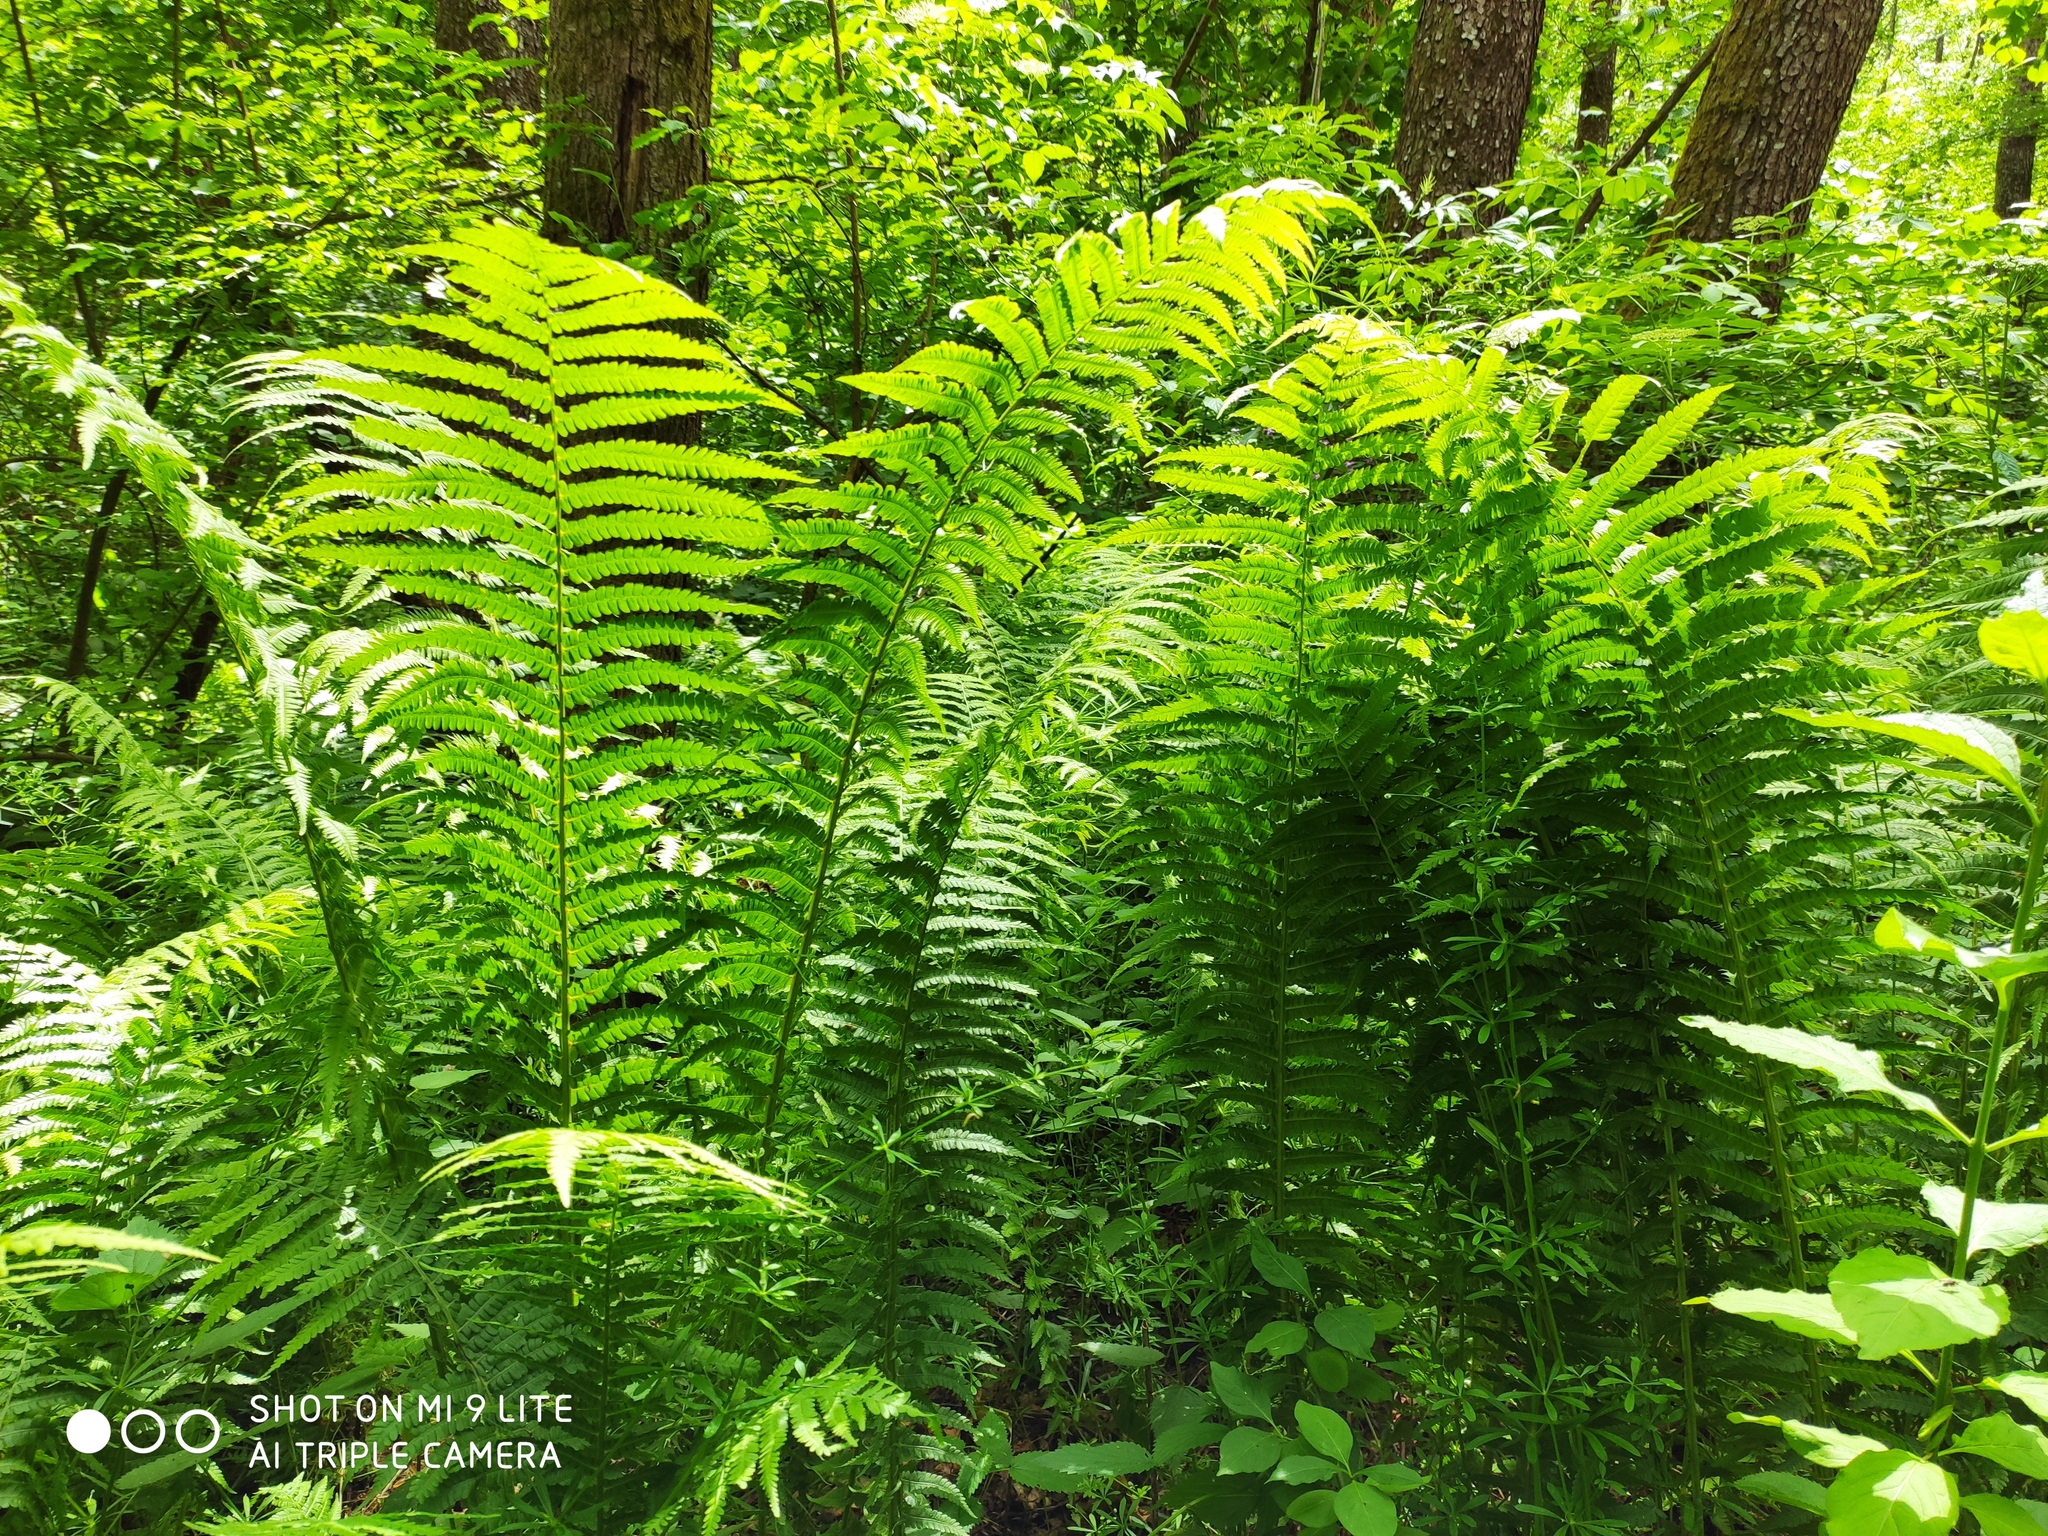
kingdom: Plantae
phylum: Tracheophyta
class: Polypodiopsida
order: Polypodiales
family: Onocleaceae
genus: Matteuccia
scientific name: Matteuccia struthiopteris
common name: Ostrich fern
